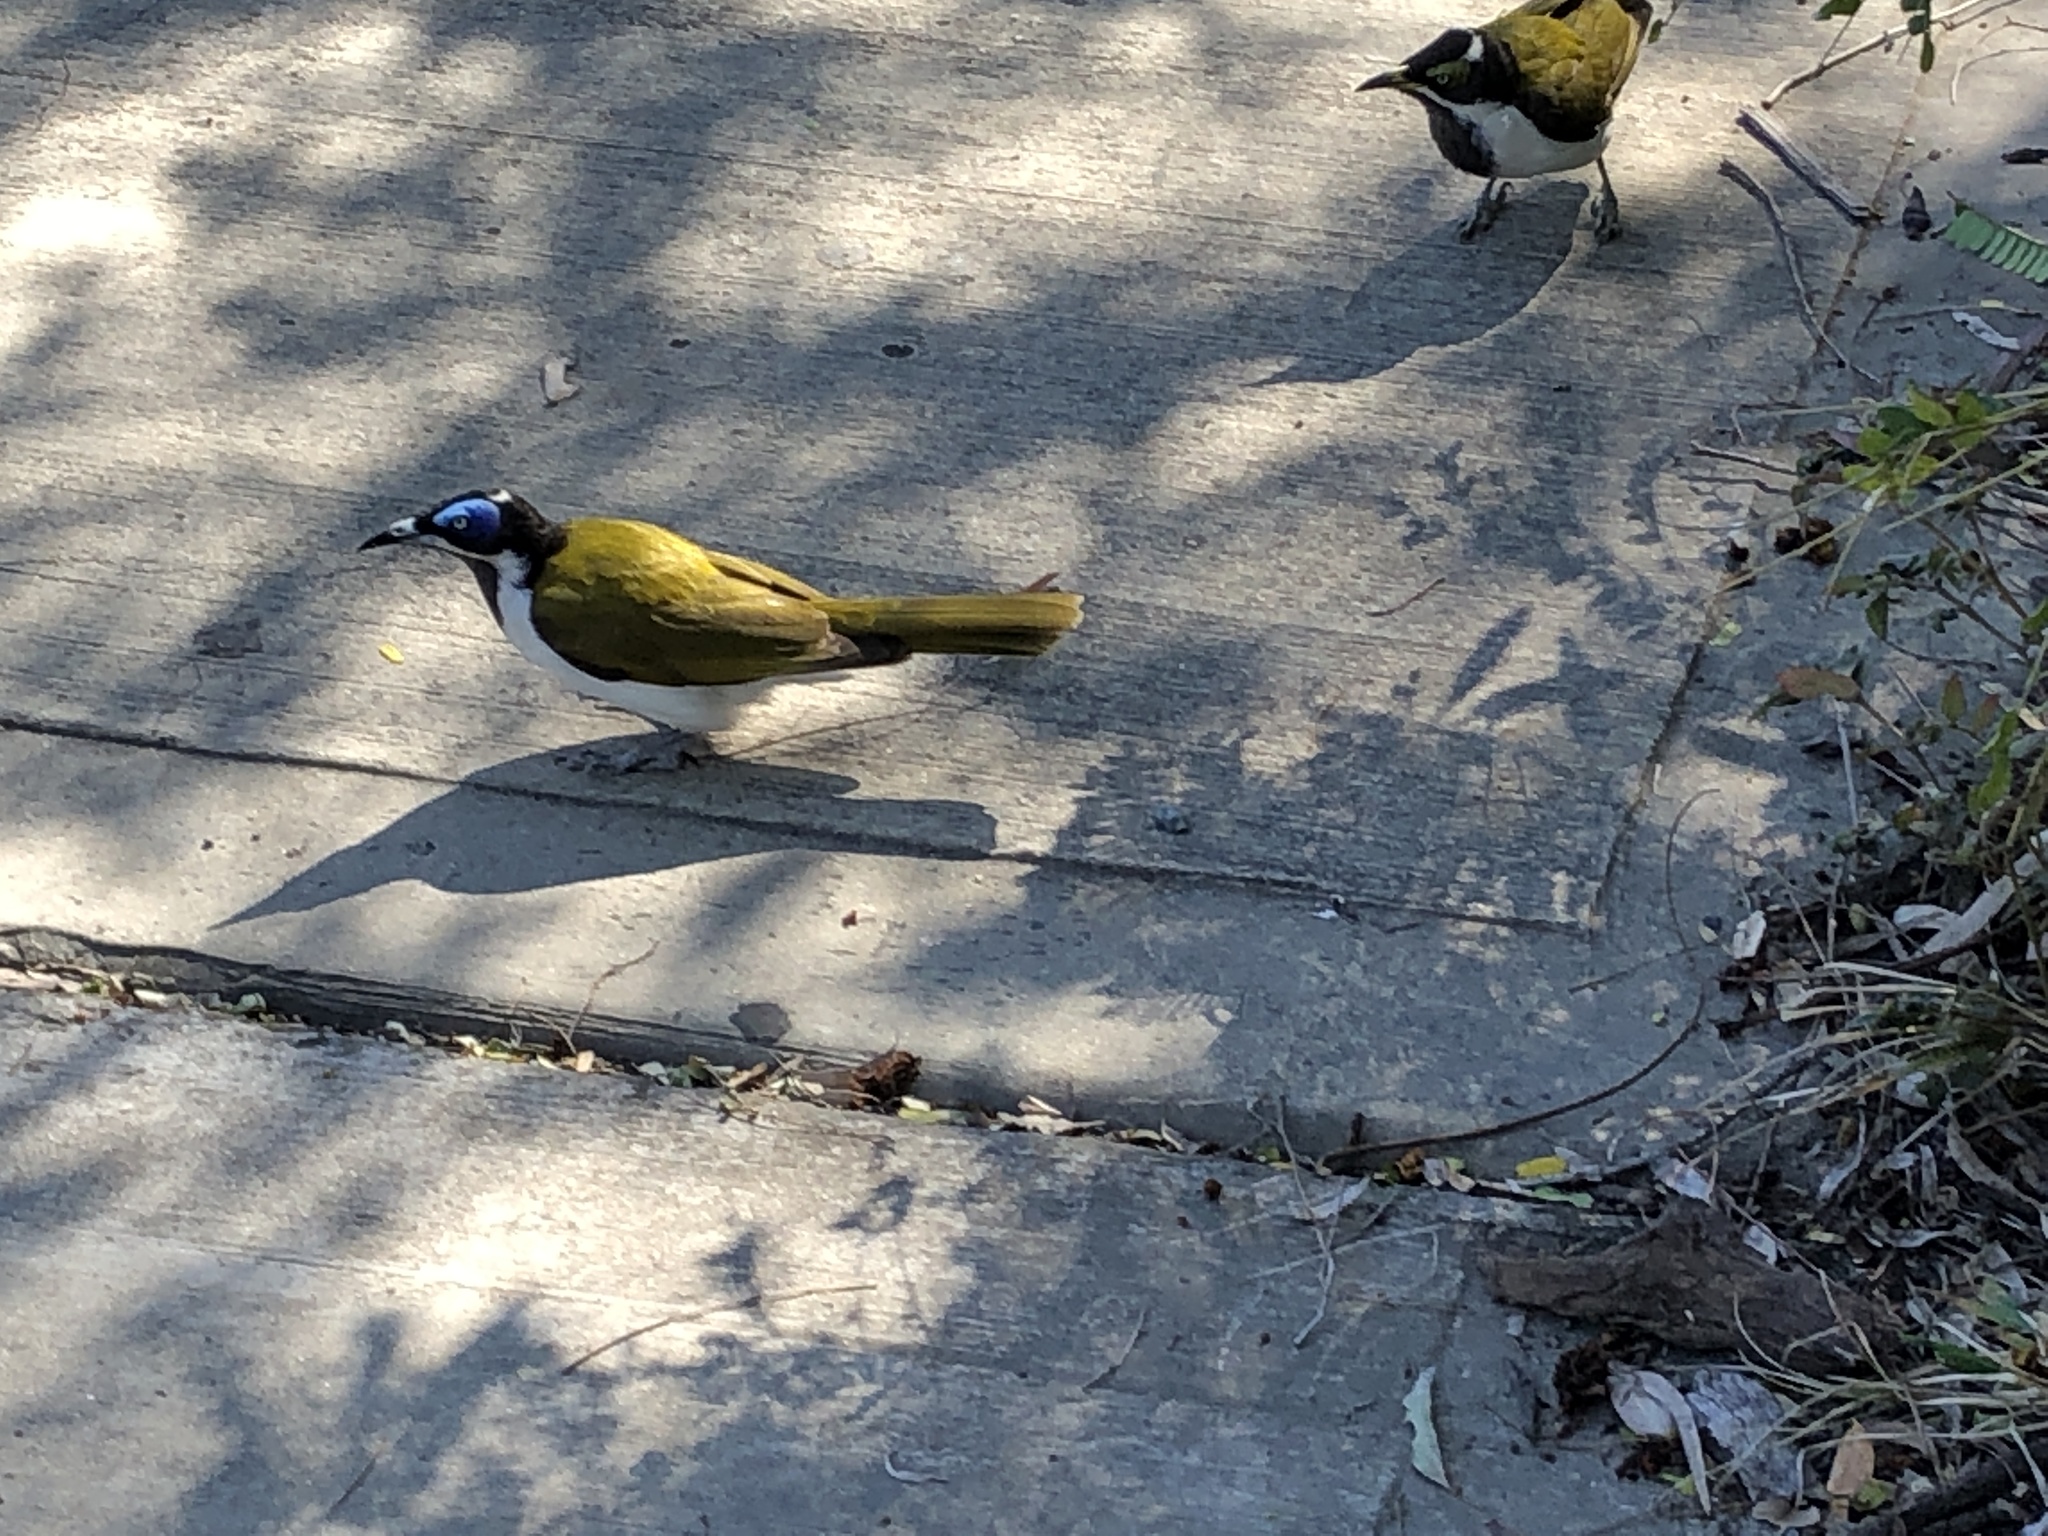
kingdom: Animalia
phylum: Chordata
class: Aves
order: Passeriformes
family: Meliphagidae
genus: Entomyzon
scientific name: Entomyzon cyanotis
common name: Blue-faced honeyeater
